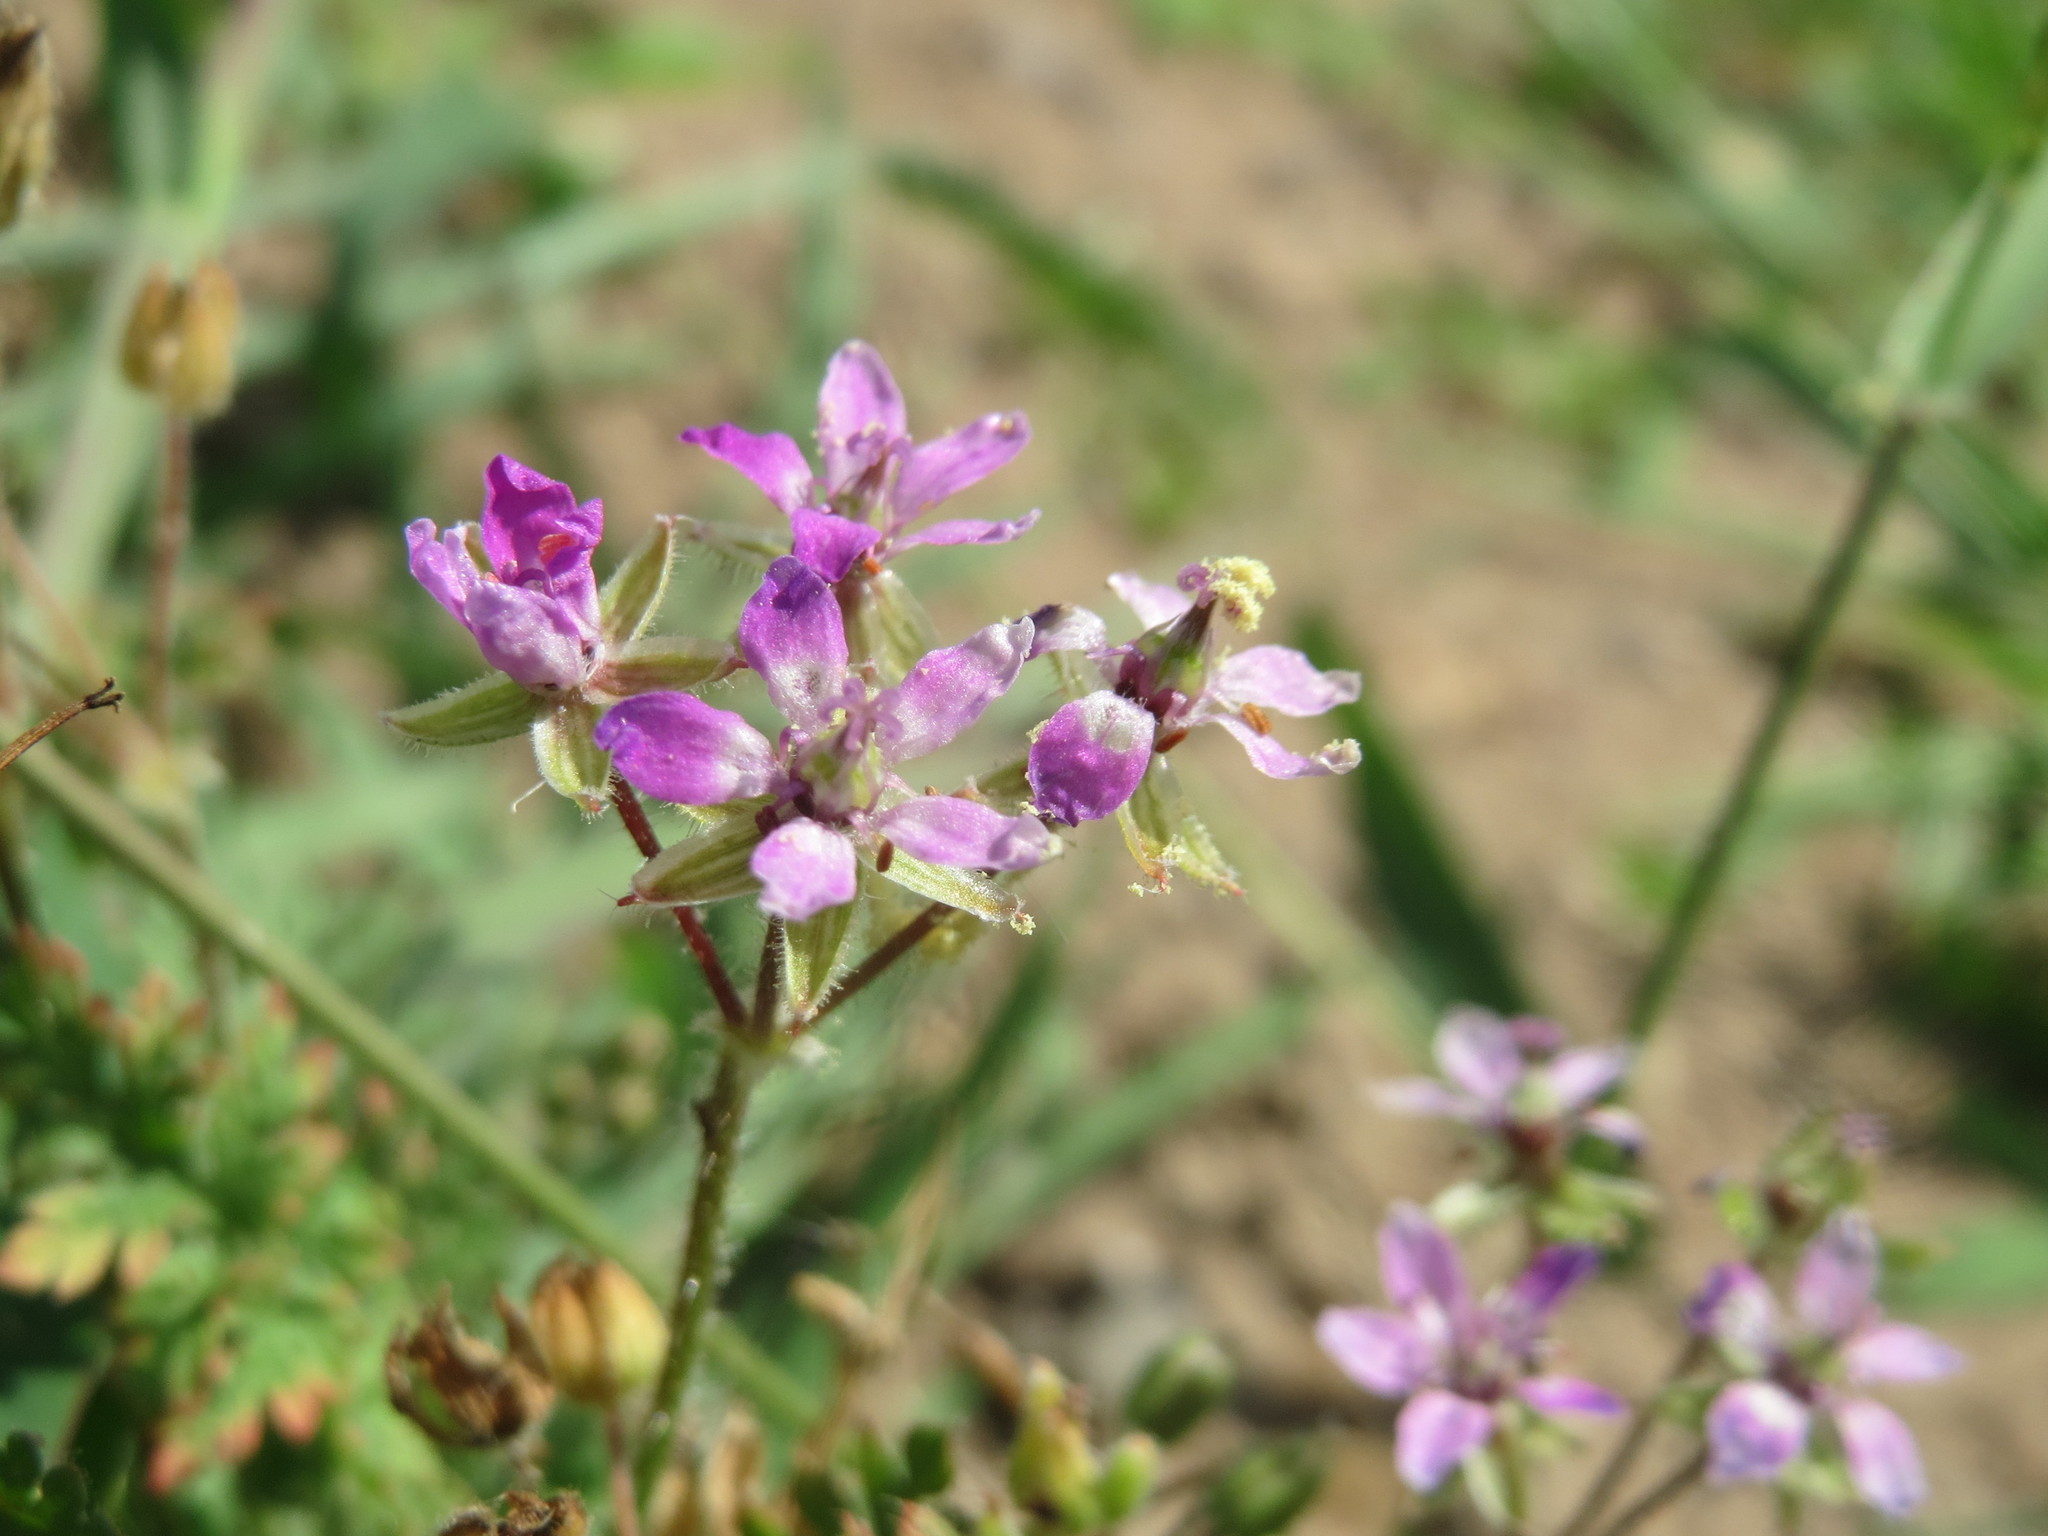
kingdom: Plantae
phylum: Tracheophyta
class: Magnoliopsida
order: Geraniales
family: Geraniaceae
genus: Erodium
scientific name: Erodium cicutarium
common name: Common stork's-bill
